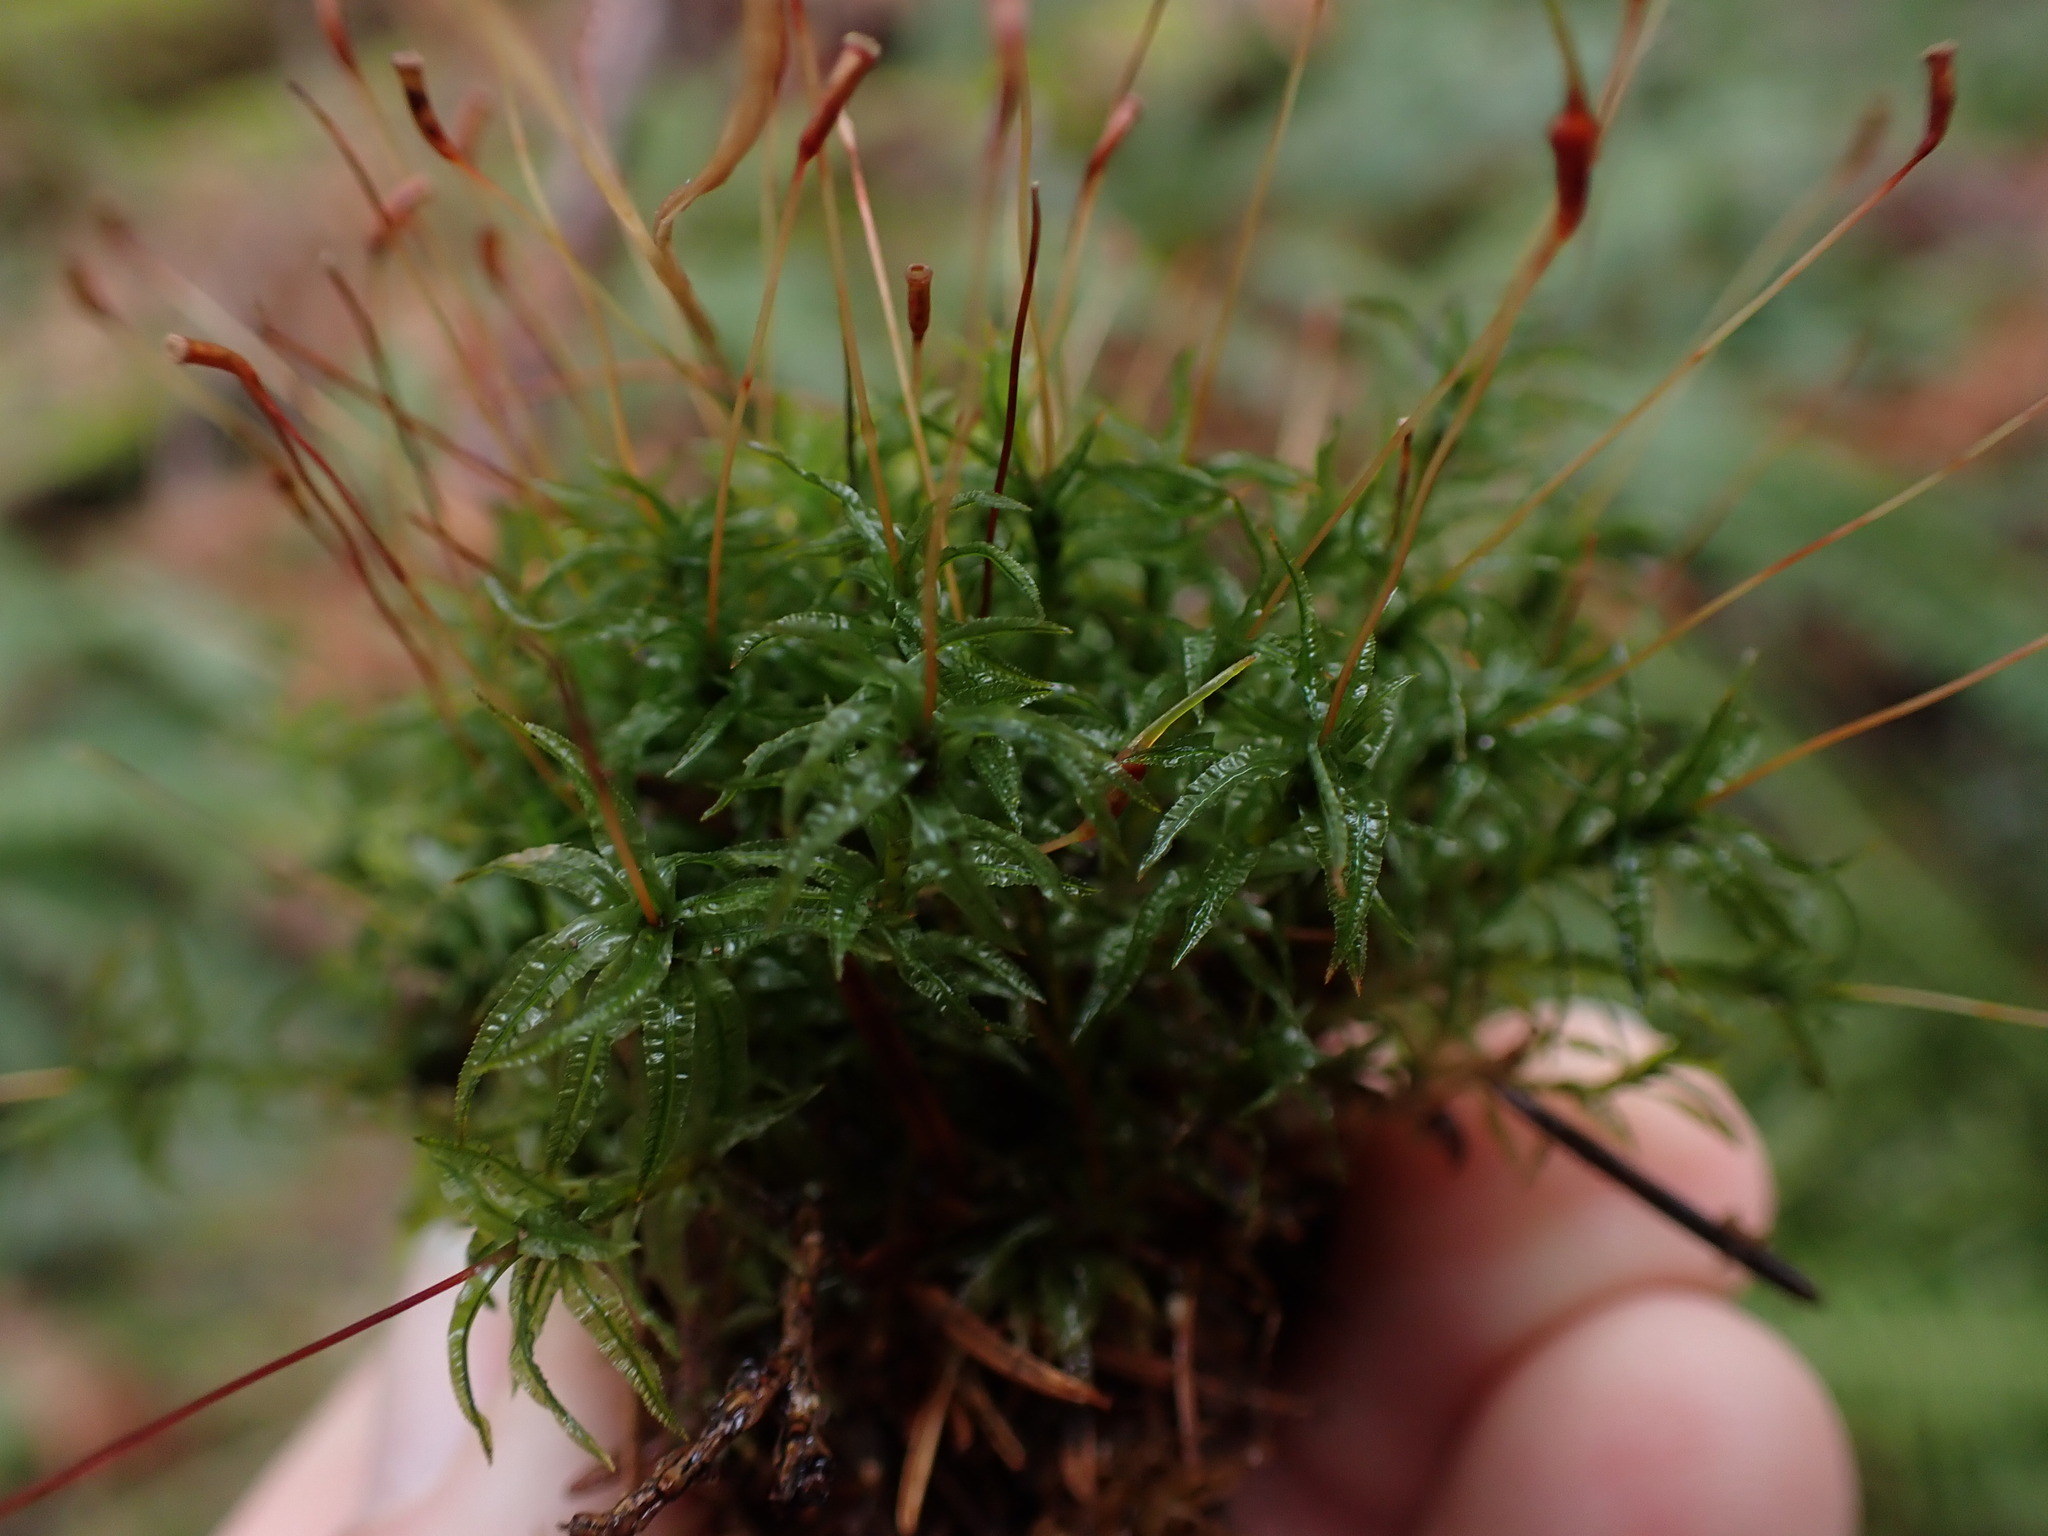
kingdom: Plantae
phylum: Bryophyta
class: Polytrichopsida
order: Polytrichales
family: Polytrichaceae
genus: Atrichum
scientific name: Atrichum undulatum
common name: Common smoothcap
